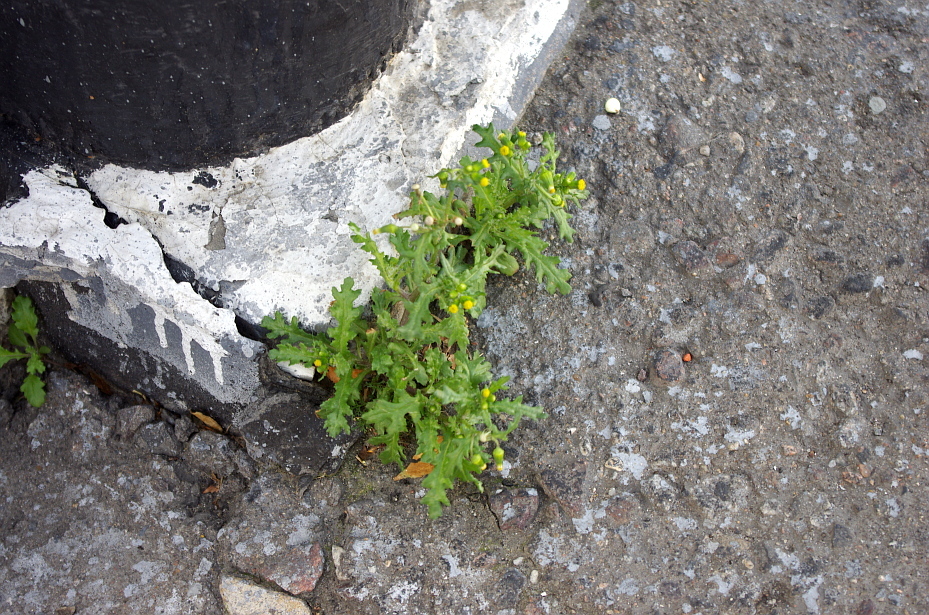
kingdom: Plantae
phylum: Tracheophyta
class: Magnoliopsida
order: Asterales
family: Asteraceae
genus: Senecio
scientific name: Senecio vulgaris
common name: Old-man-in-the-spring
